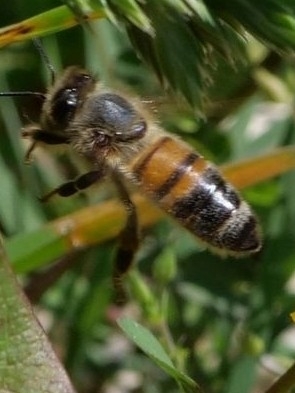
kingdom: Animalia
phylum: Arthropoda
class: Insecta
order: Hymenoptera
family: Apidae
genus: Apis
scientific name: Apis mellifera
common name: Honey bee
